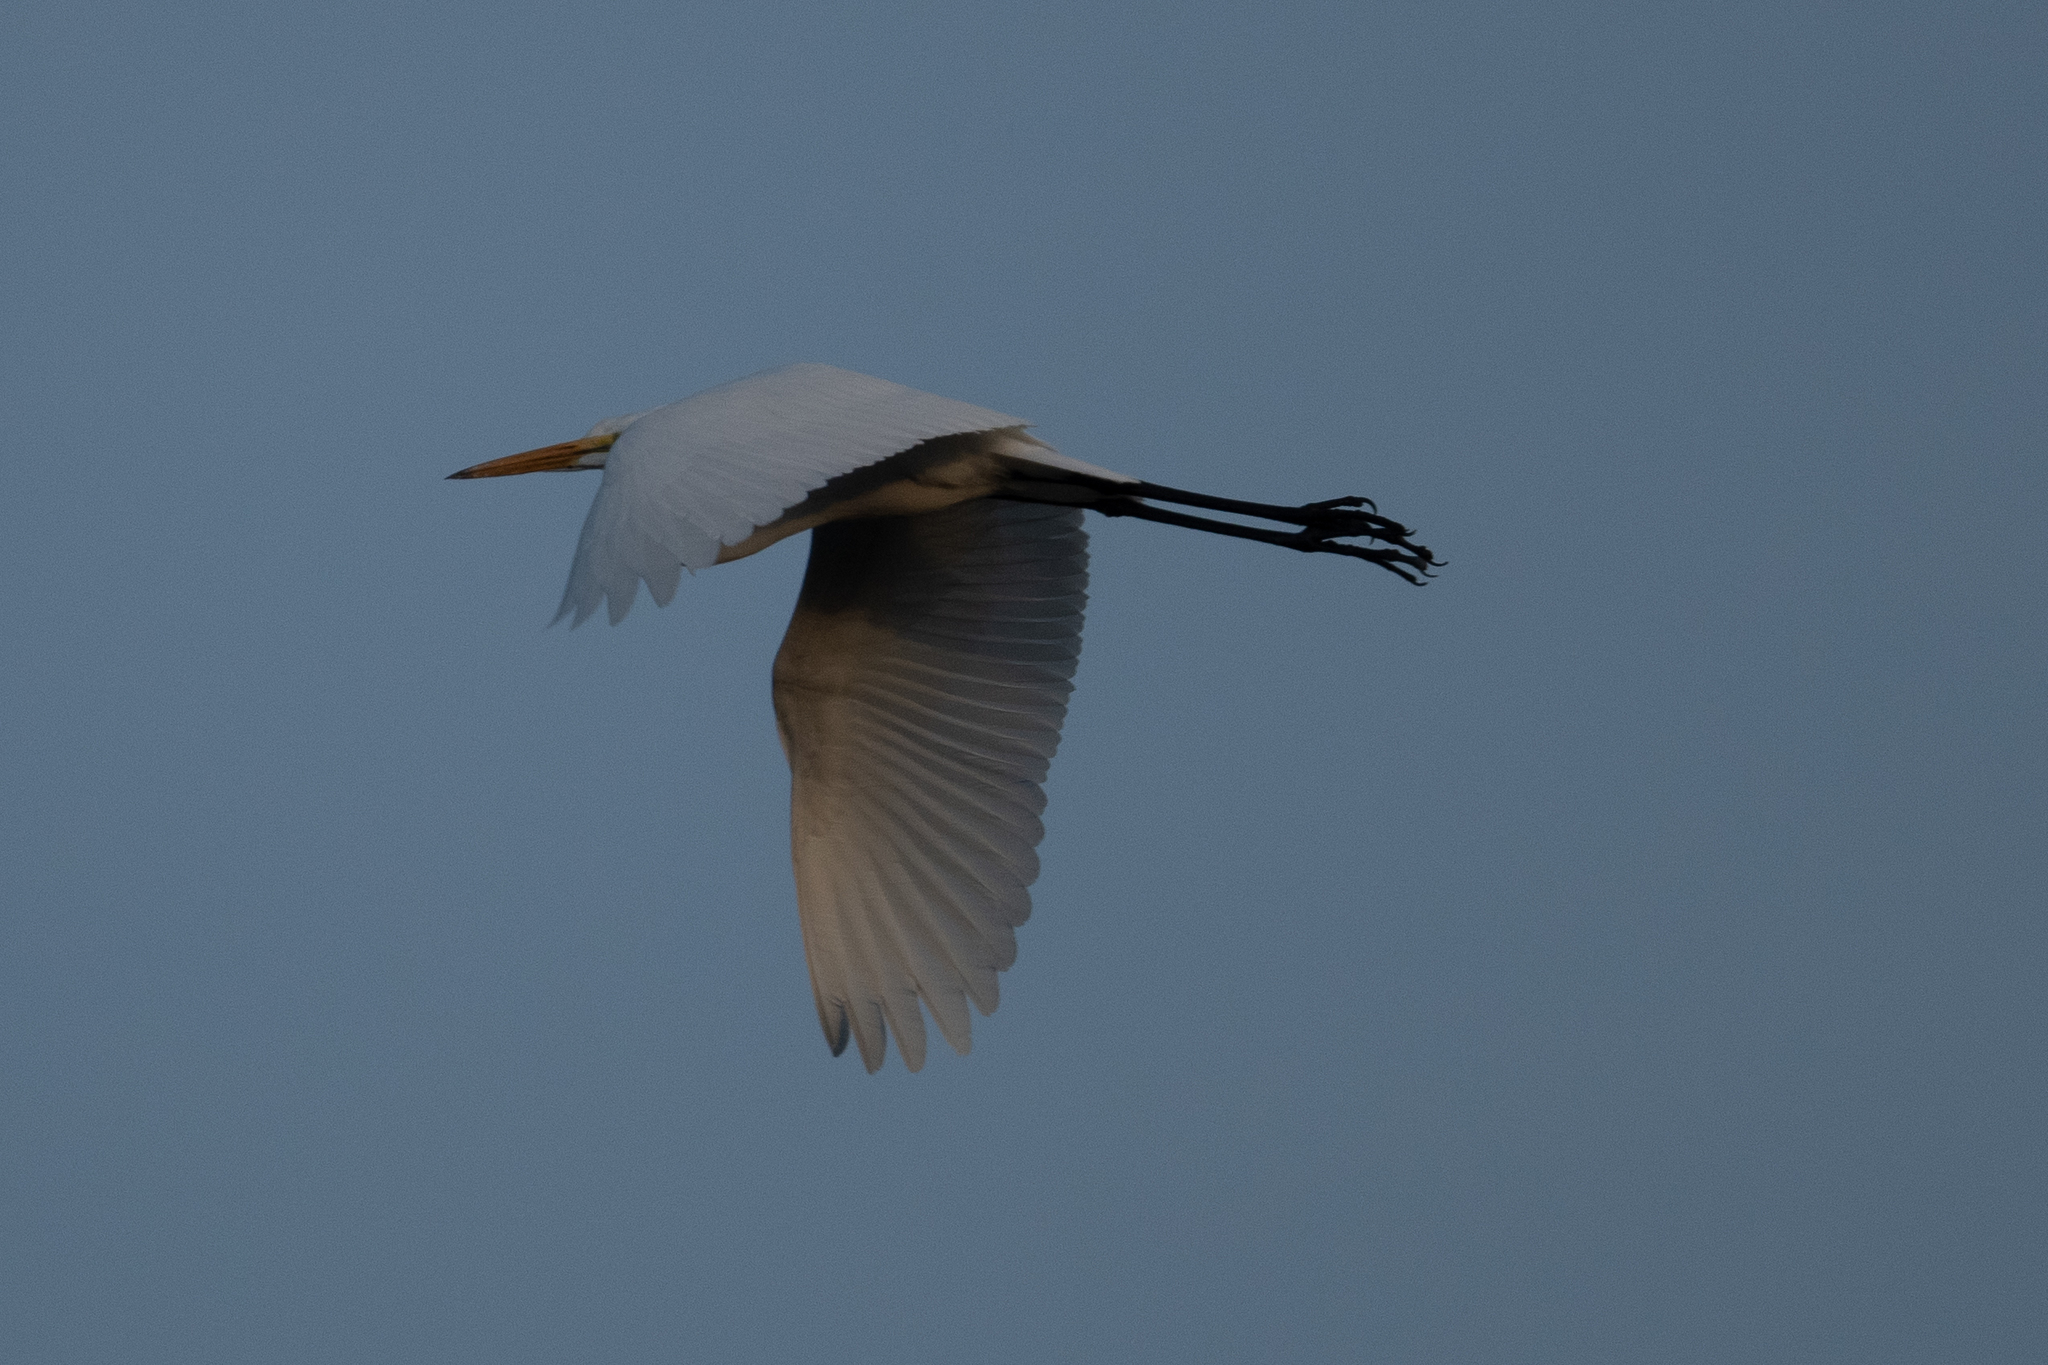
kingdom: Animalia
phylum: Chordata
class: Aves
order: Pelecaniformes
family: Ardeidae
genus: Ardea
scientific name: Ardea alba
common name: Great egret
